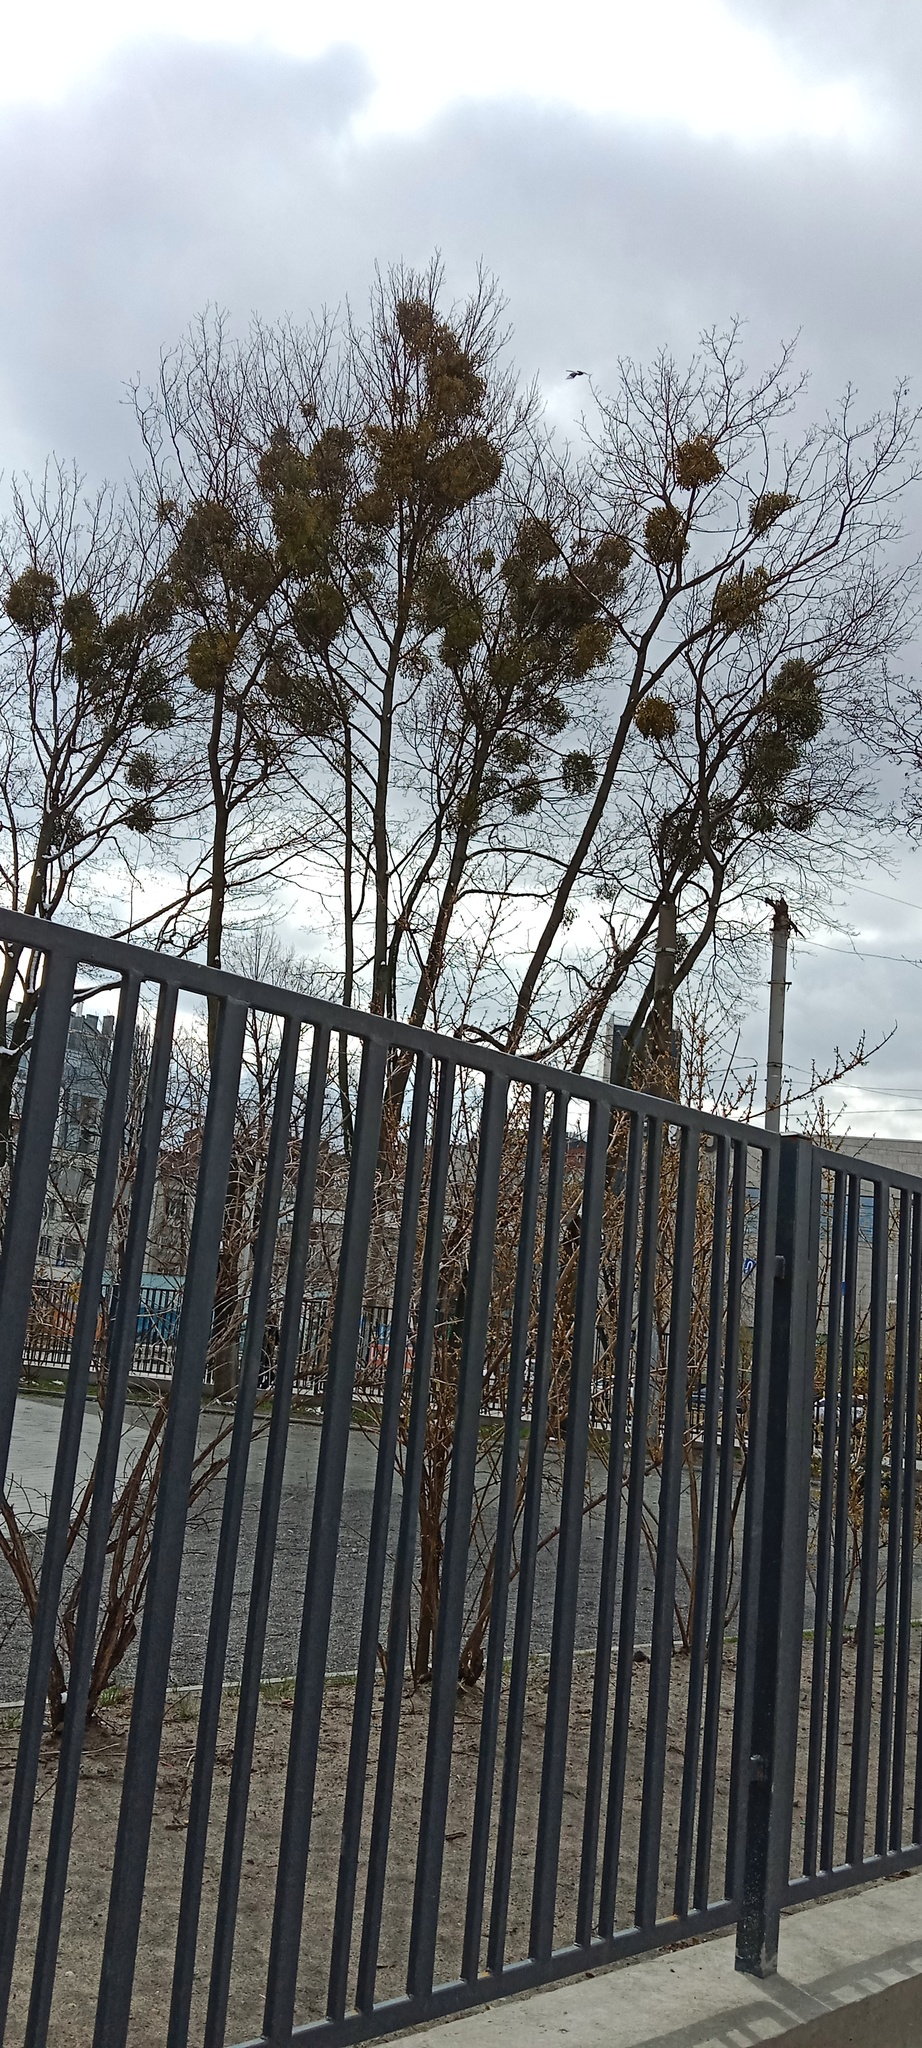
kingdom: Plantae
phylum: Tracheophyta
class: Magnoliopsida
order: Santalales
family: Viscaceae
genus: Viscum
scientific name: Viscum album
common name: Mistletoe
